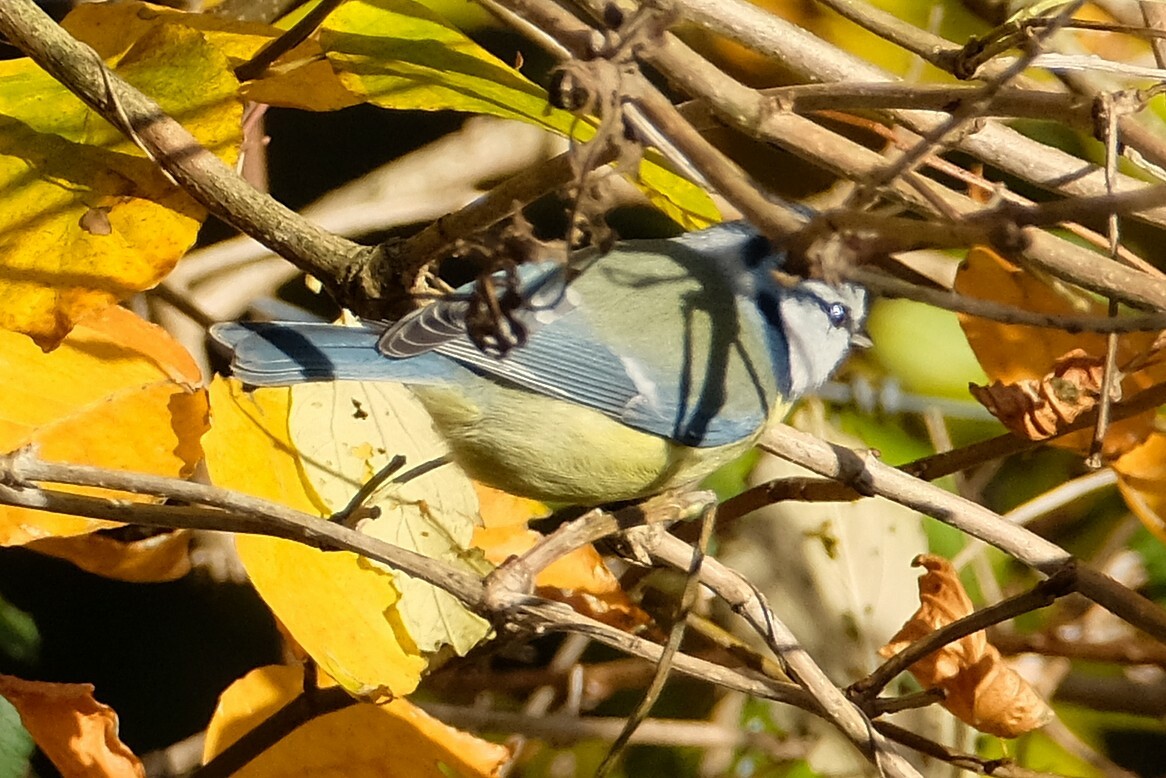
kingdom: Animalia
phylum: Chordata
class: Aves
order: Passeriformes
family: Paridae
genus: Cyanistes
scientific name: Cyanistes caeruleus
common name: Eurasian blue tit
